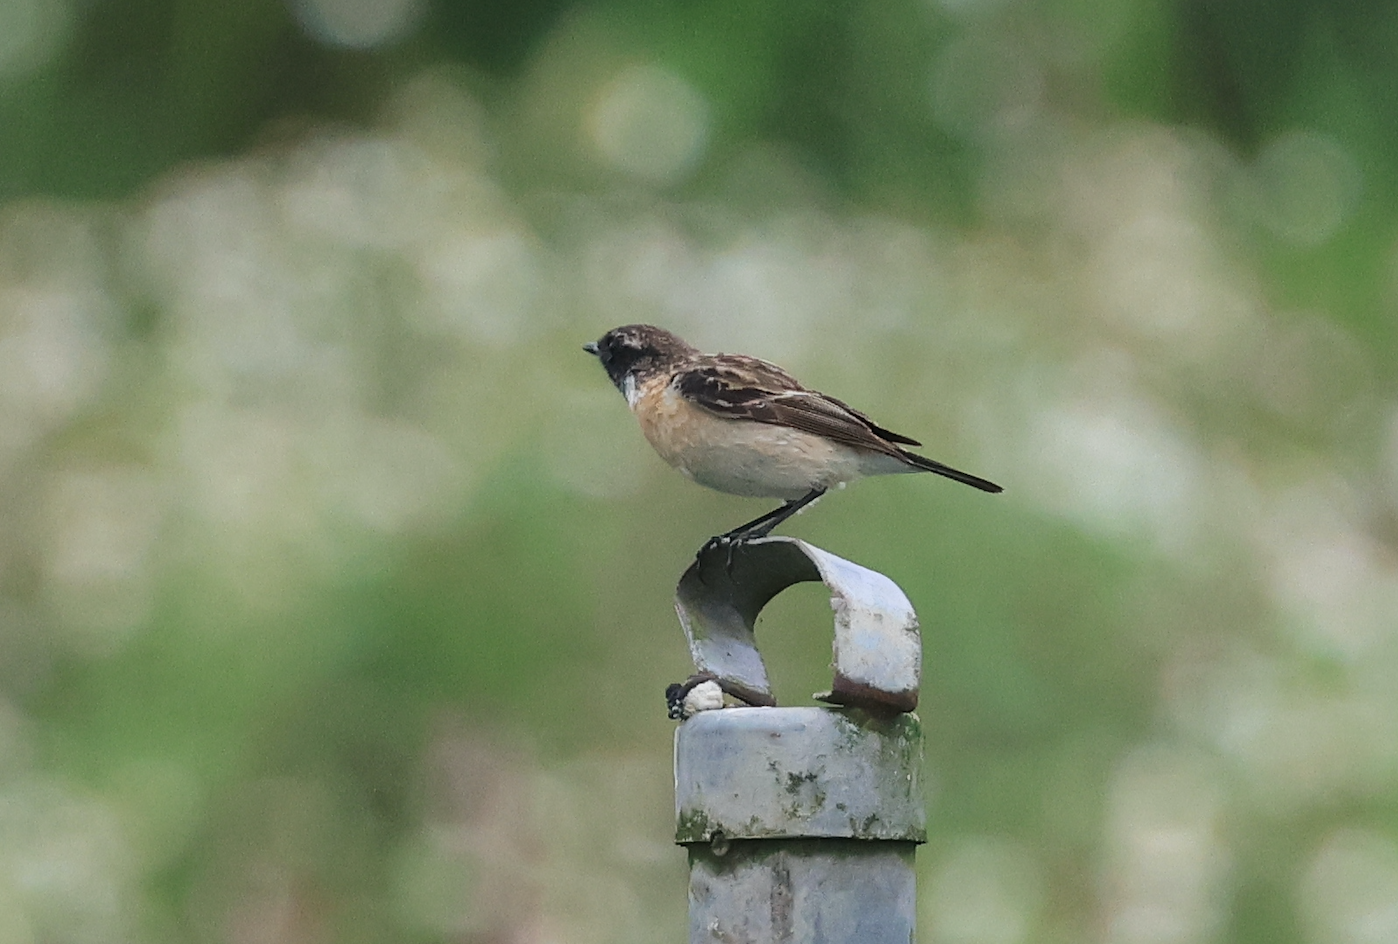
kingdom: Animalia
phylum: Chordata
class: Aves
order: Passeriformes
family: Muscicapidae
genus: Saxicola
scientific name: Saxicola stejnegeri
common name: Stejneger's stonechat
